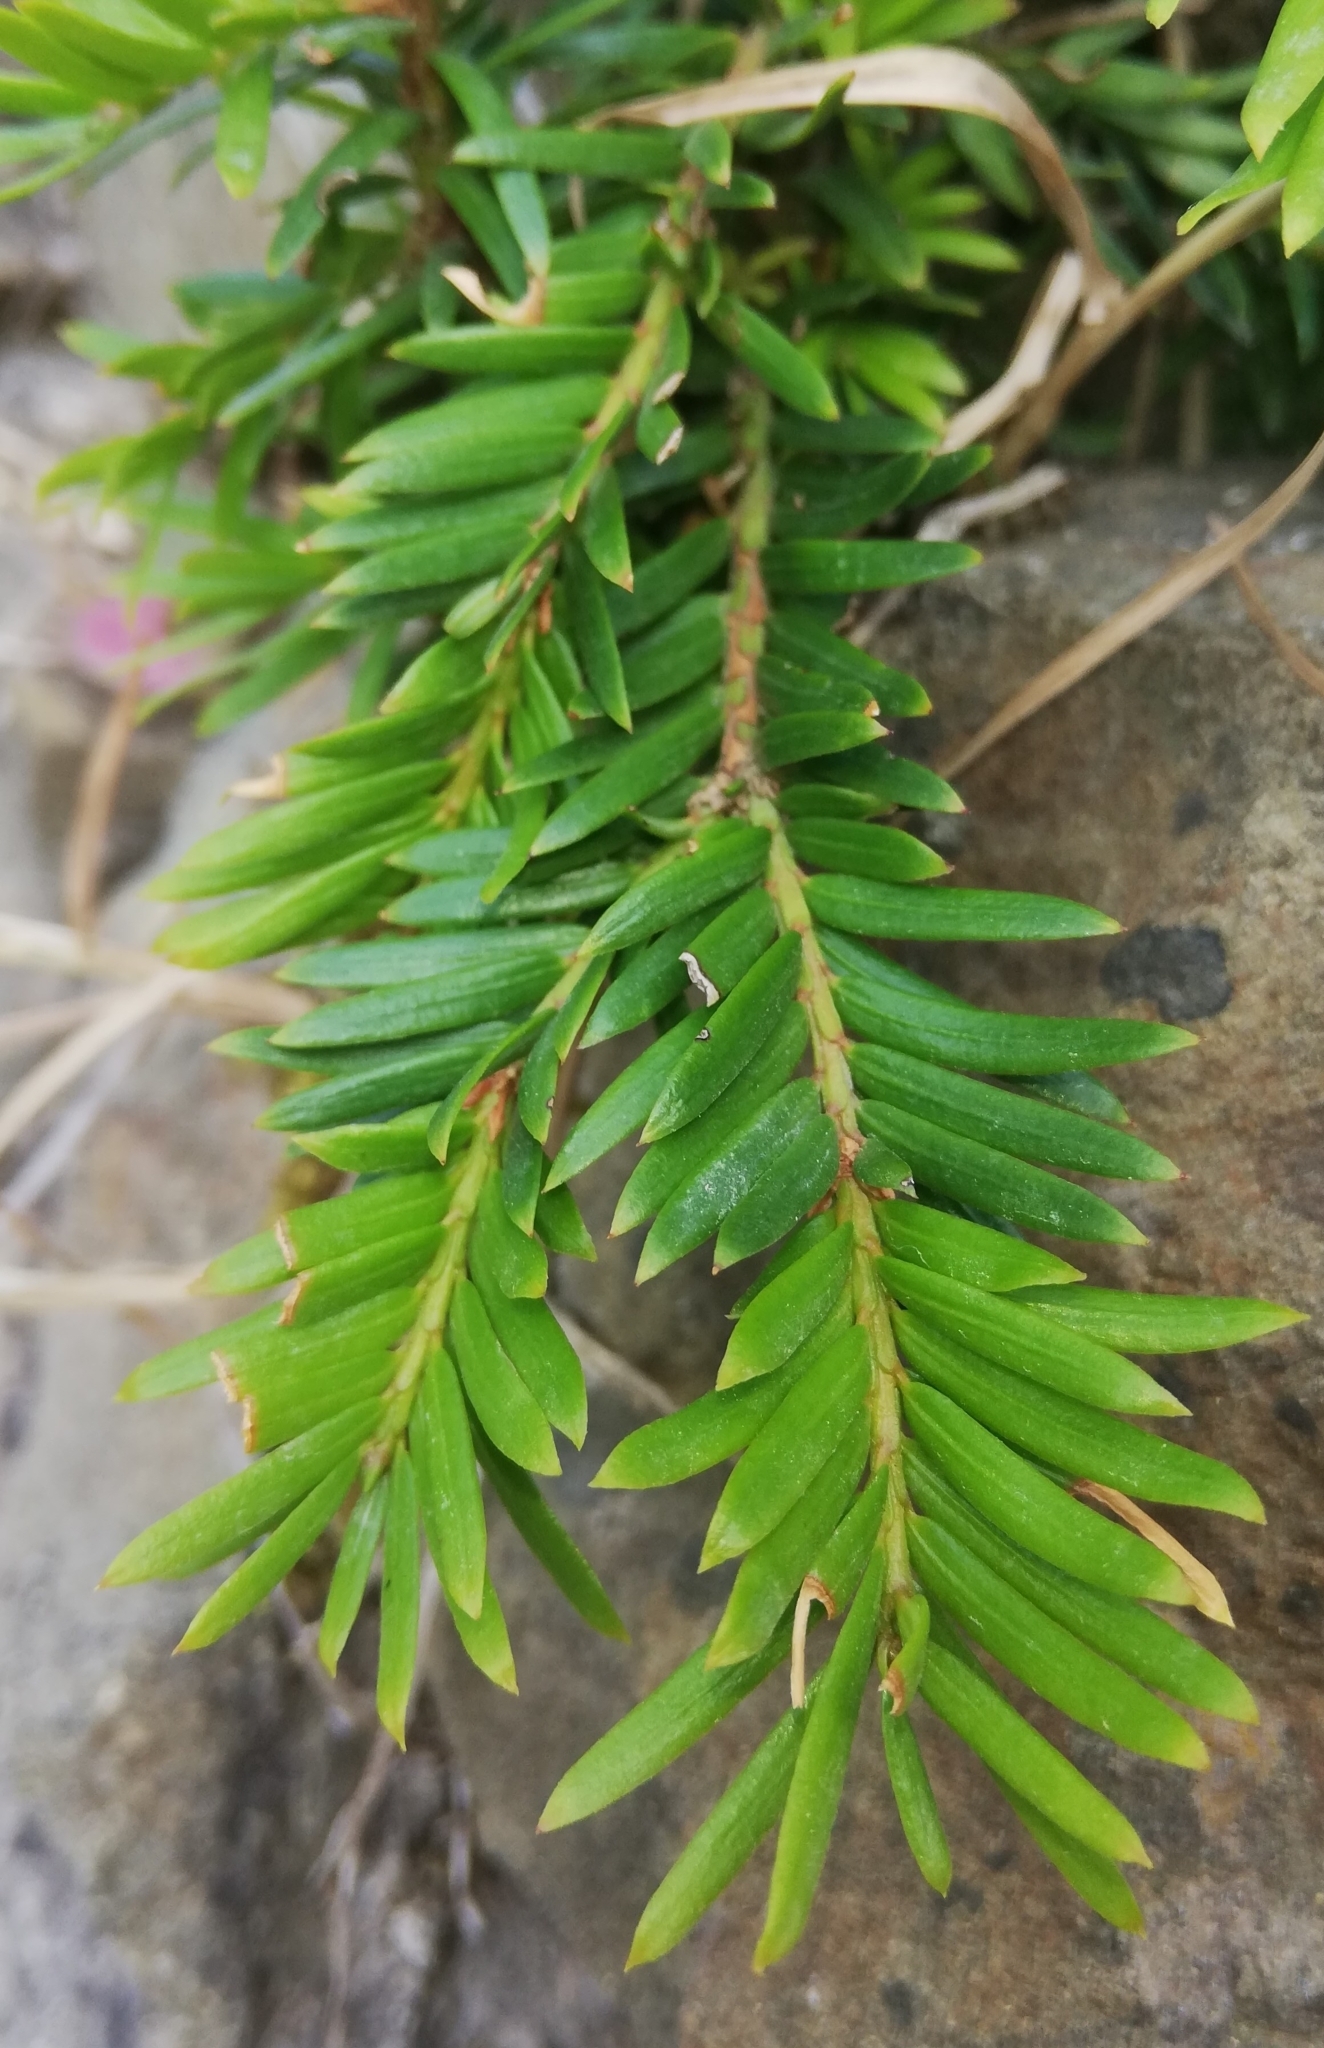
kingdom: Plantae
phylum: Tracheophyta
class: Pinopsida
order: Pinales
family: Taxaceae
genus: Taxus
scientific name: Taxus baccata
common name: Yew
